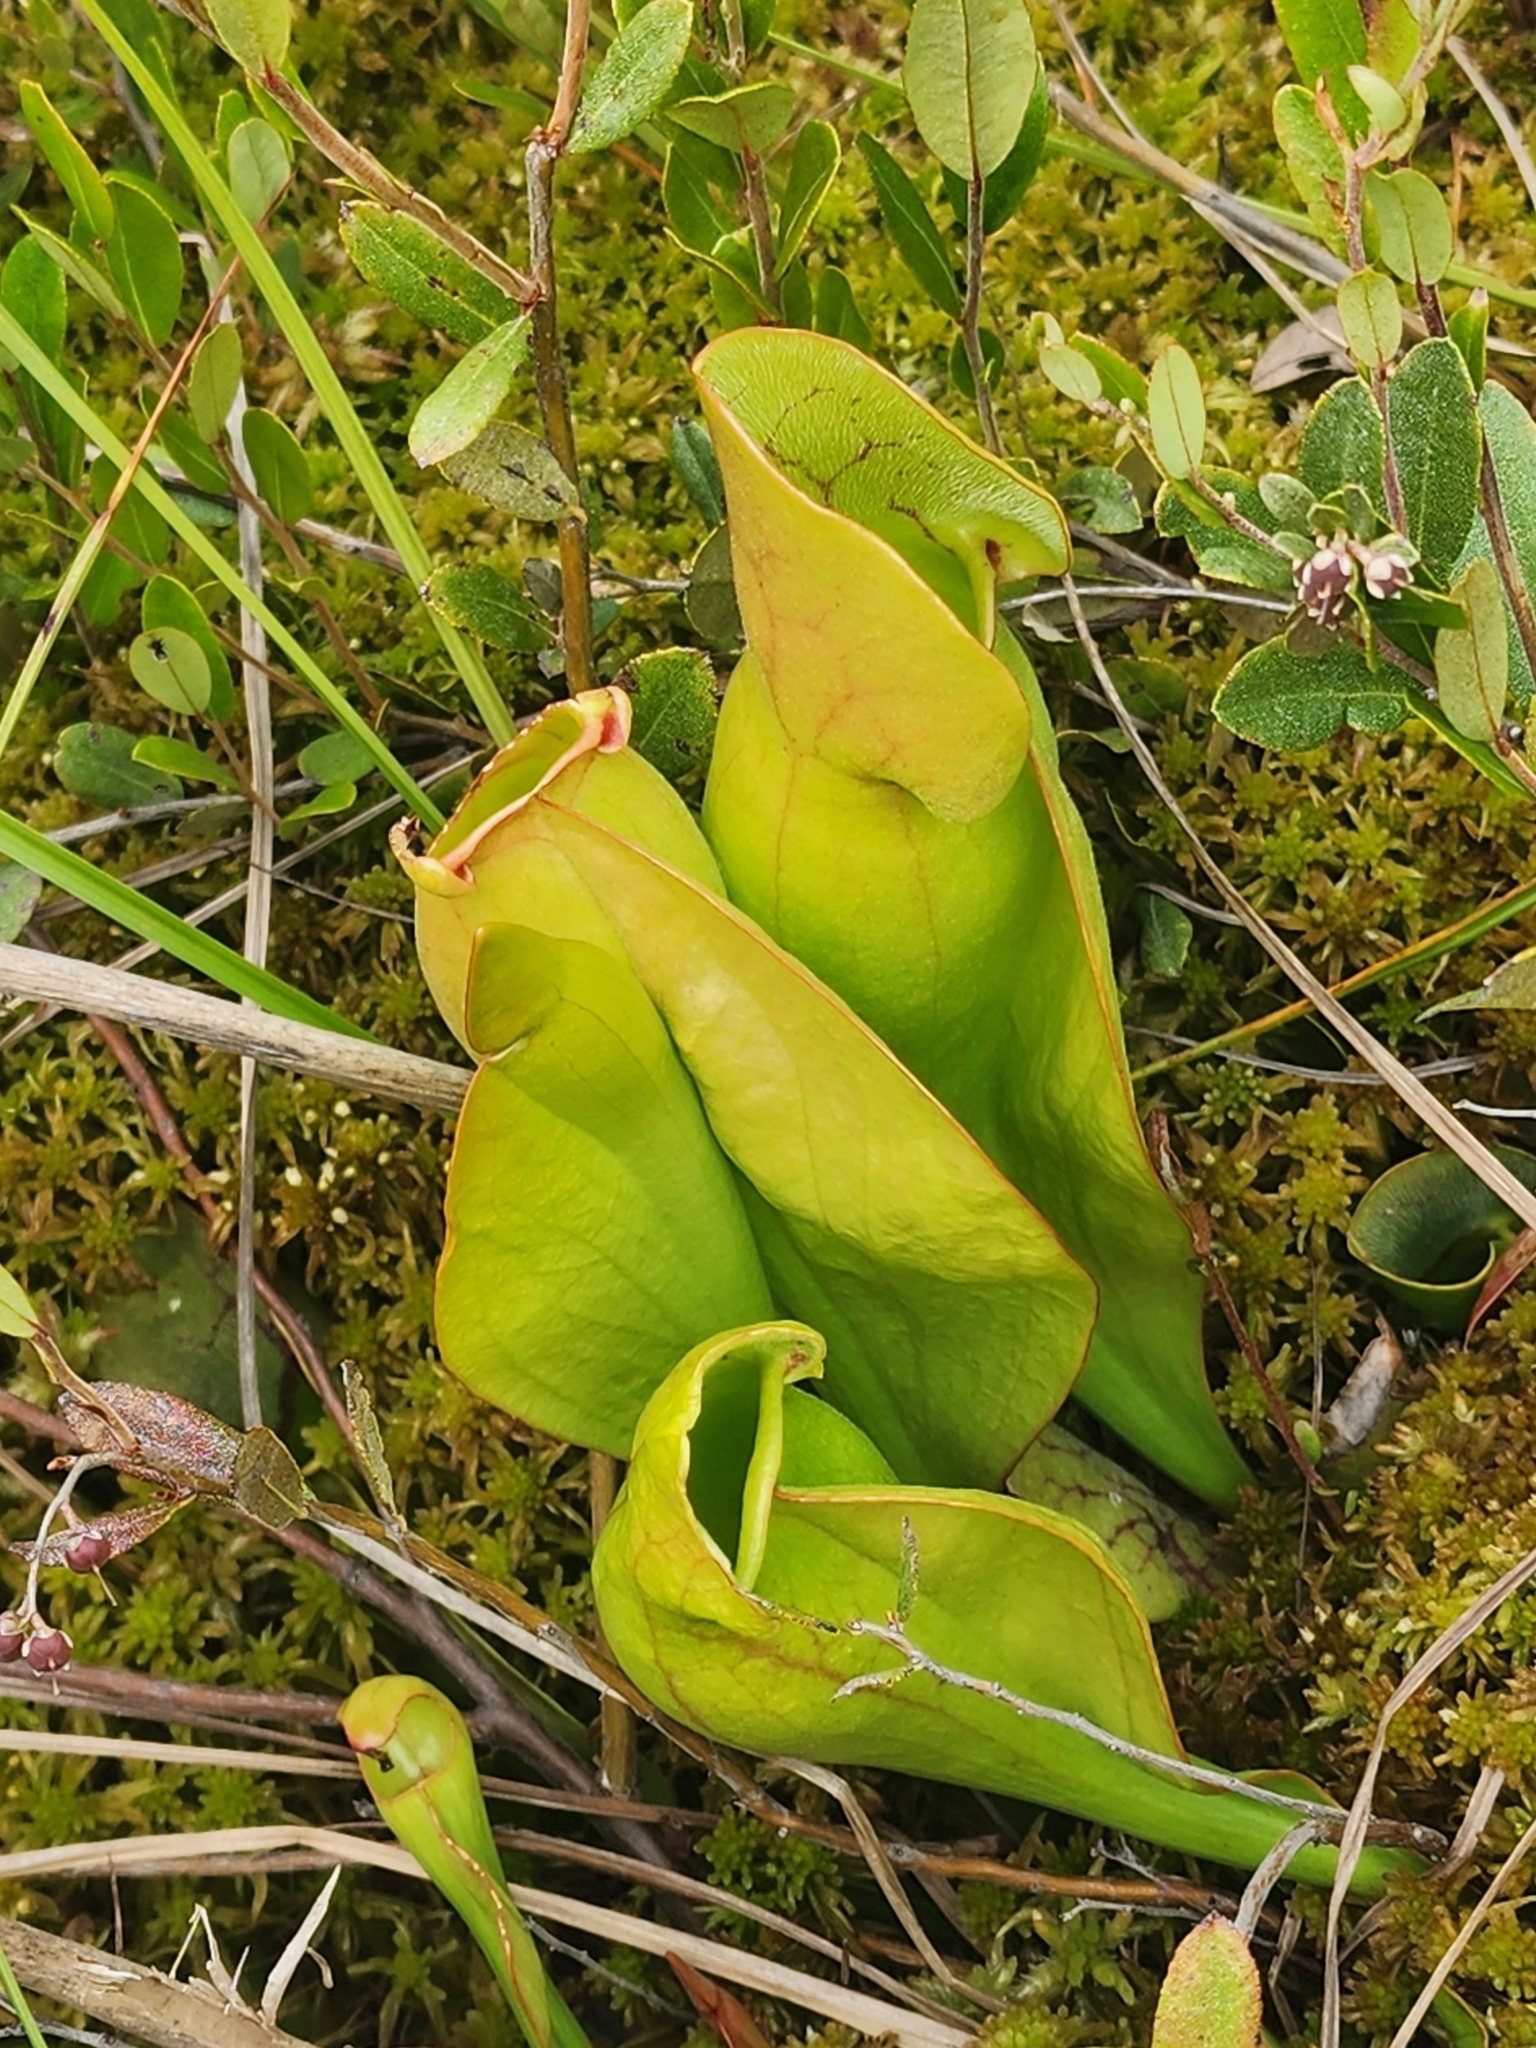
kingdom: Plantae
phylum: Tracheophyta
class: Magnoliopsida
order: Ericales
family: Sarraceniaceae
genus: Sarracenia
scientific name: Sarracenia purpurea
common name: Pitcherplant
